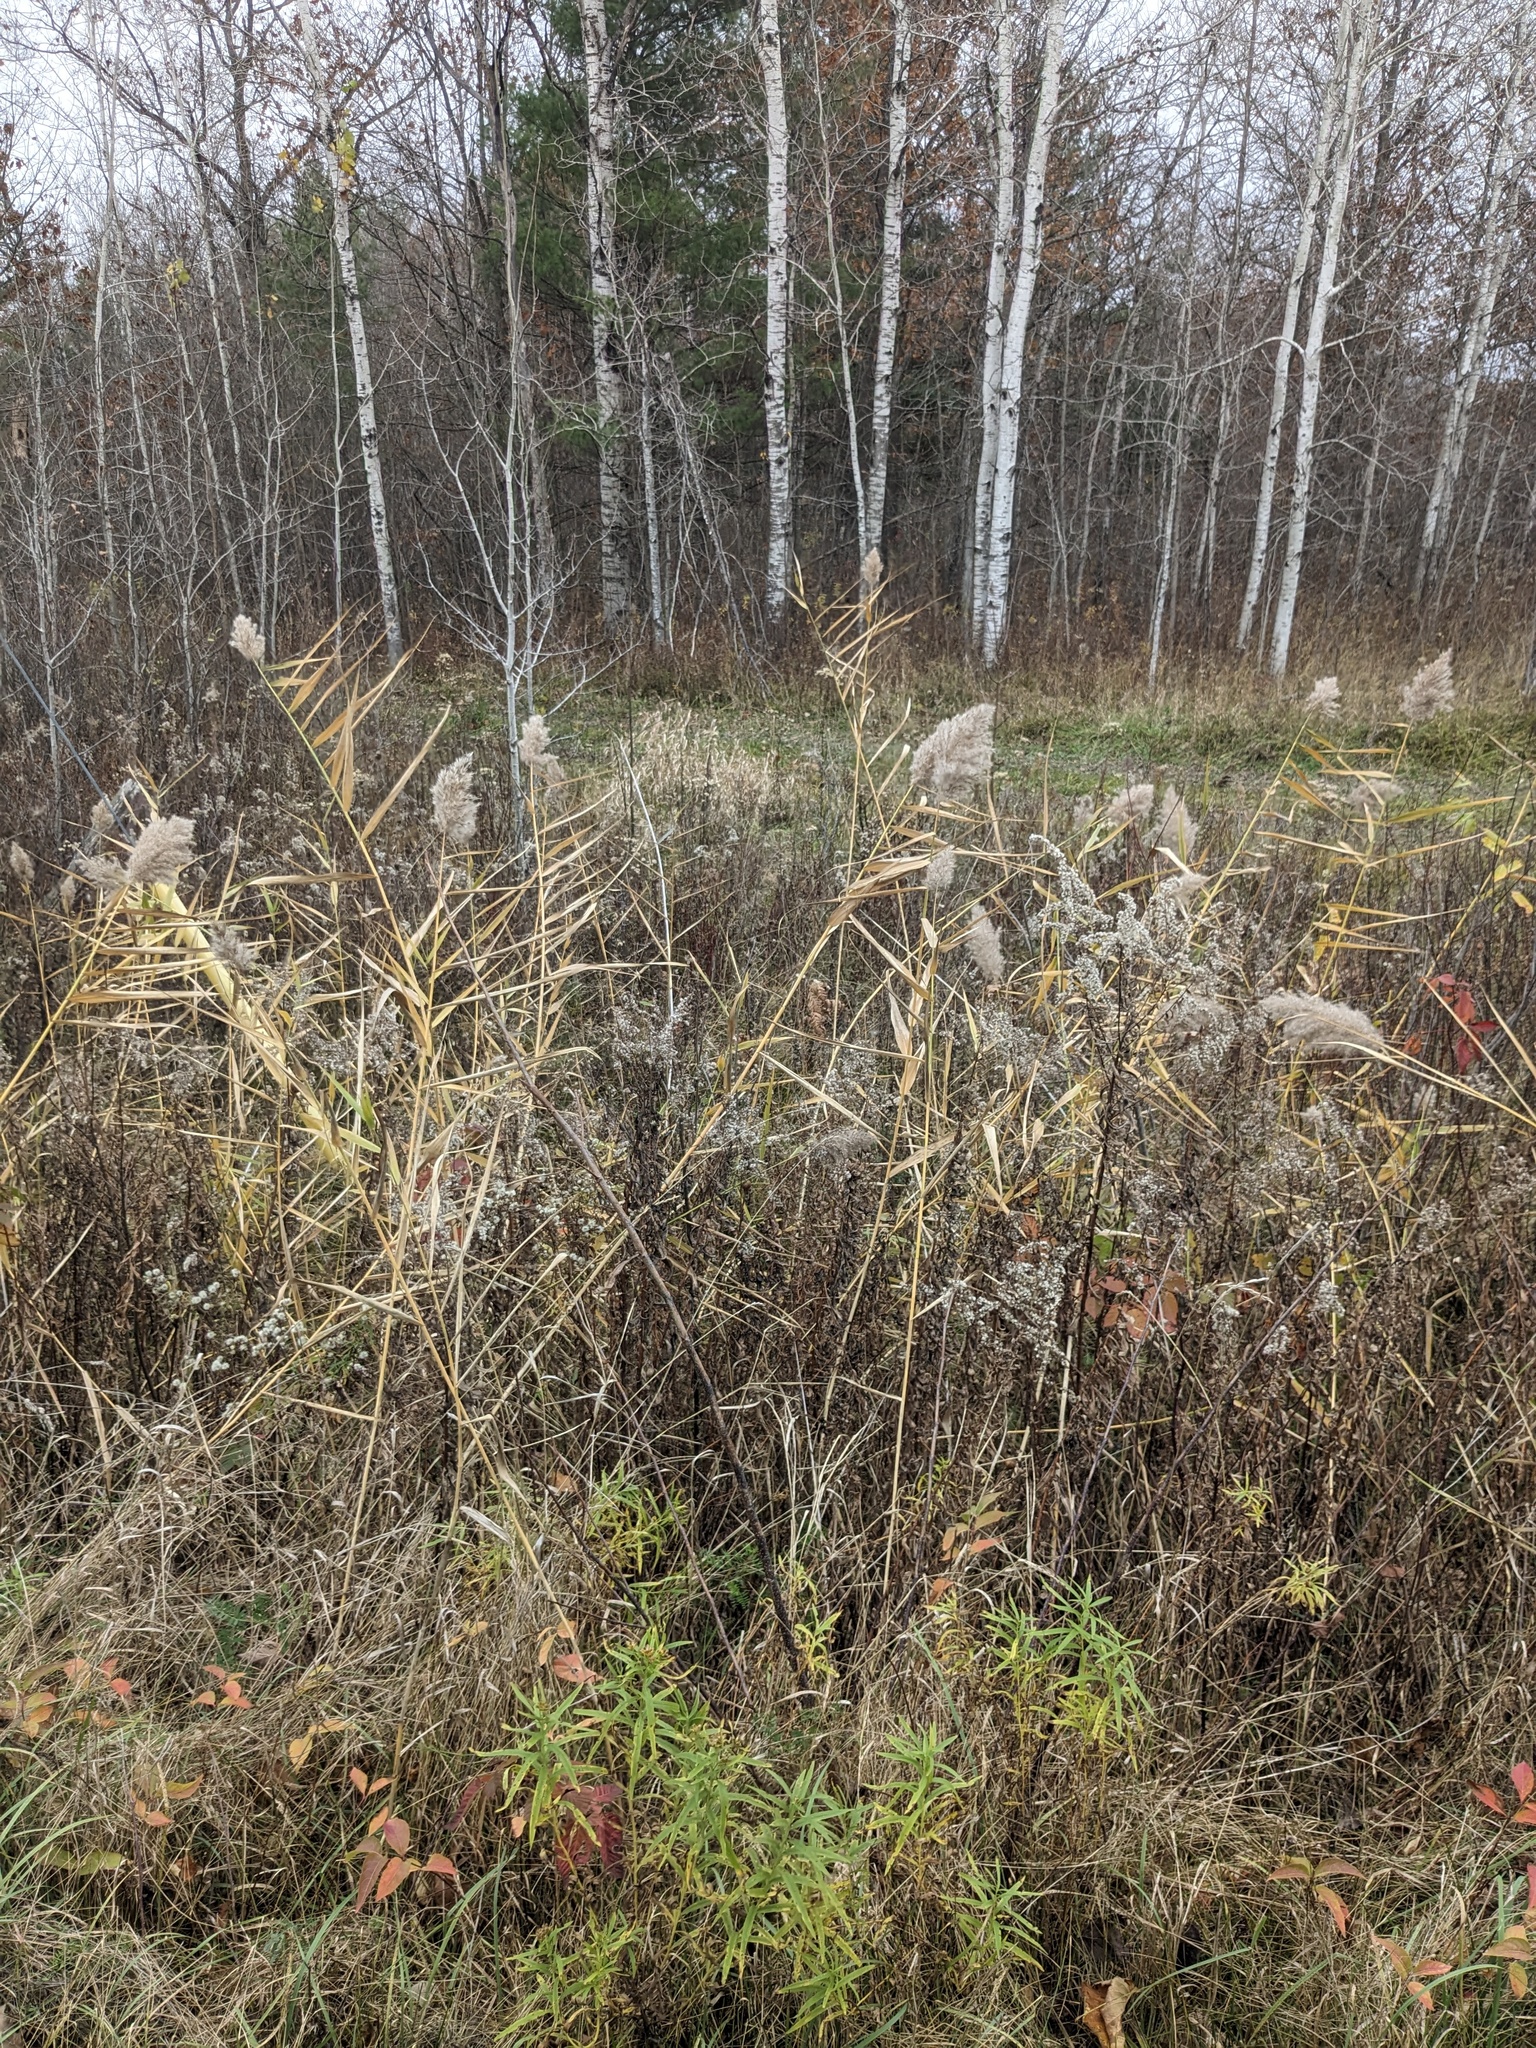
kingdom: Plantae
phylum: Tracheophyta
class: Liliopsida
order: Poales
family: Poaceae
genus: Phragmites
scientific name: Phragmites australis
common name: Common reed
